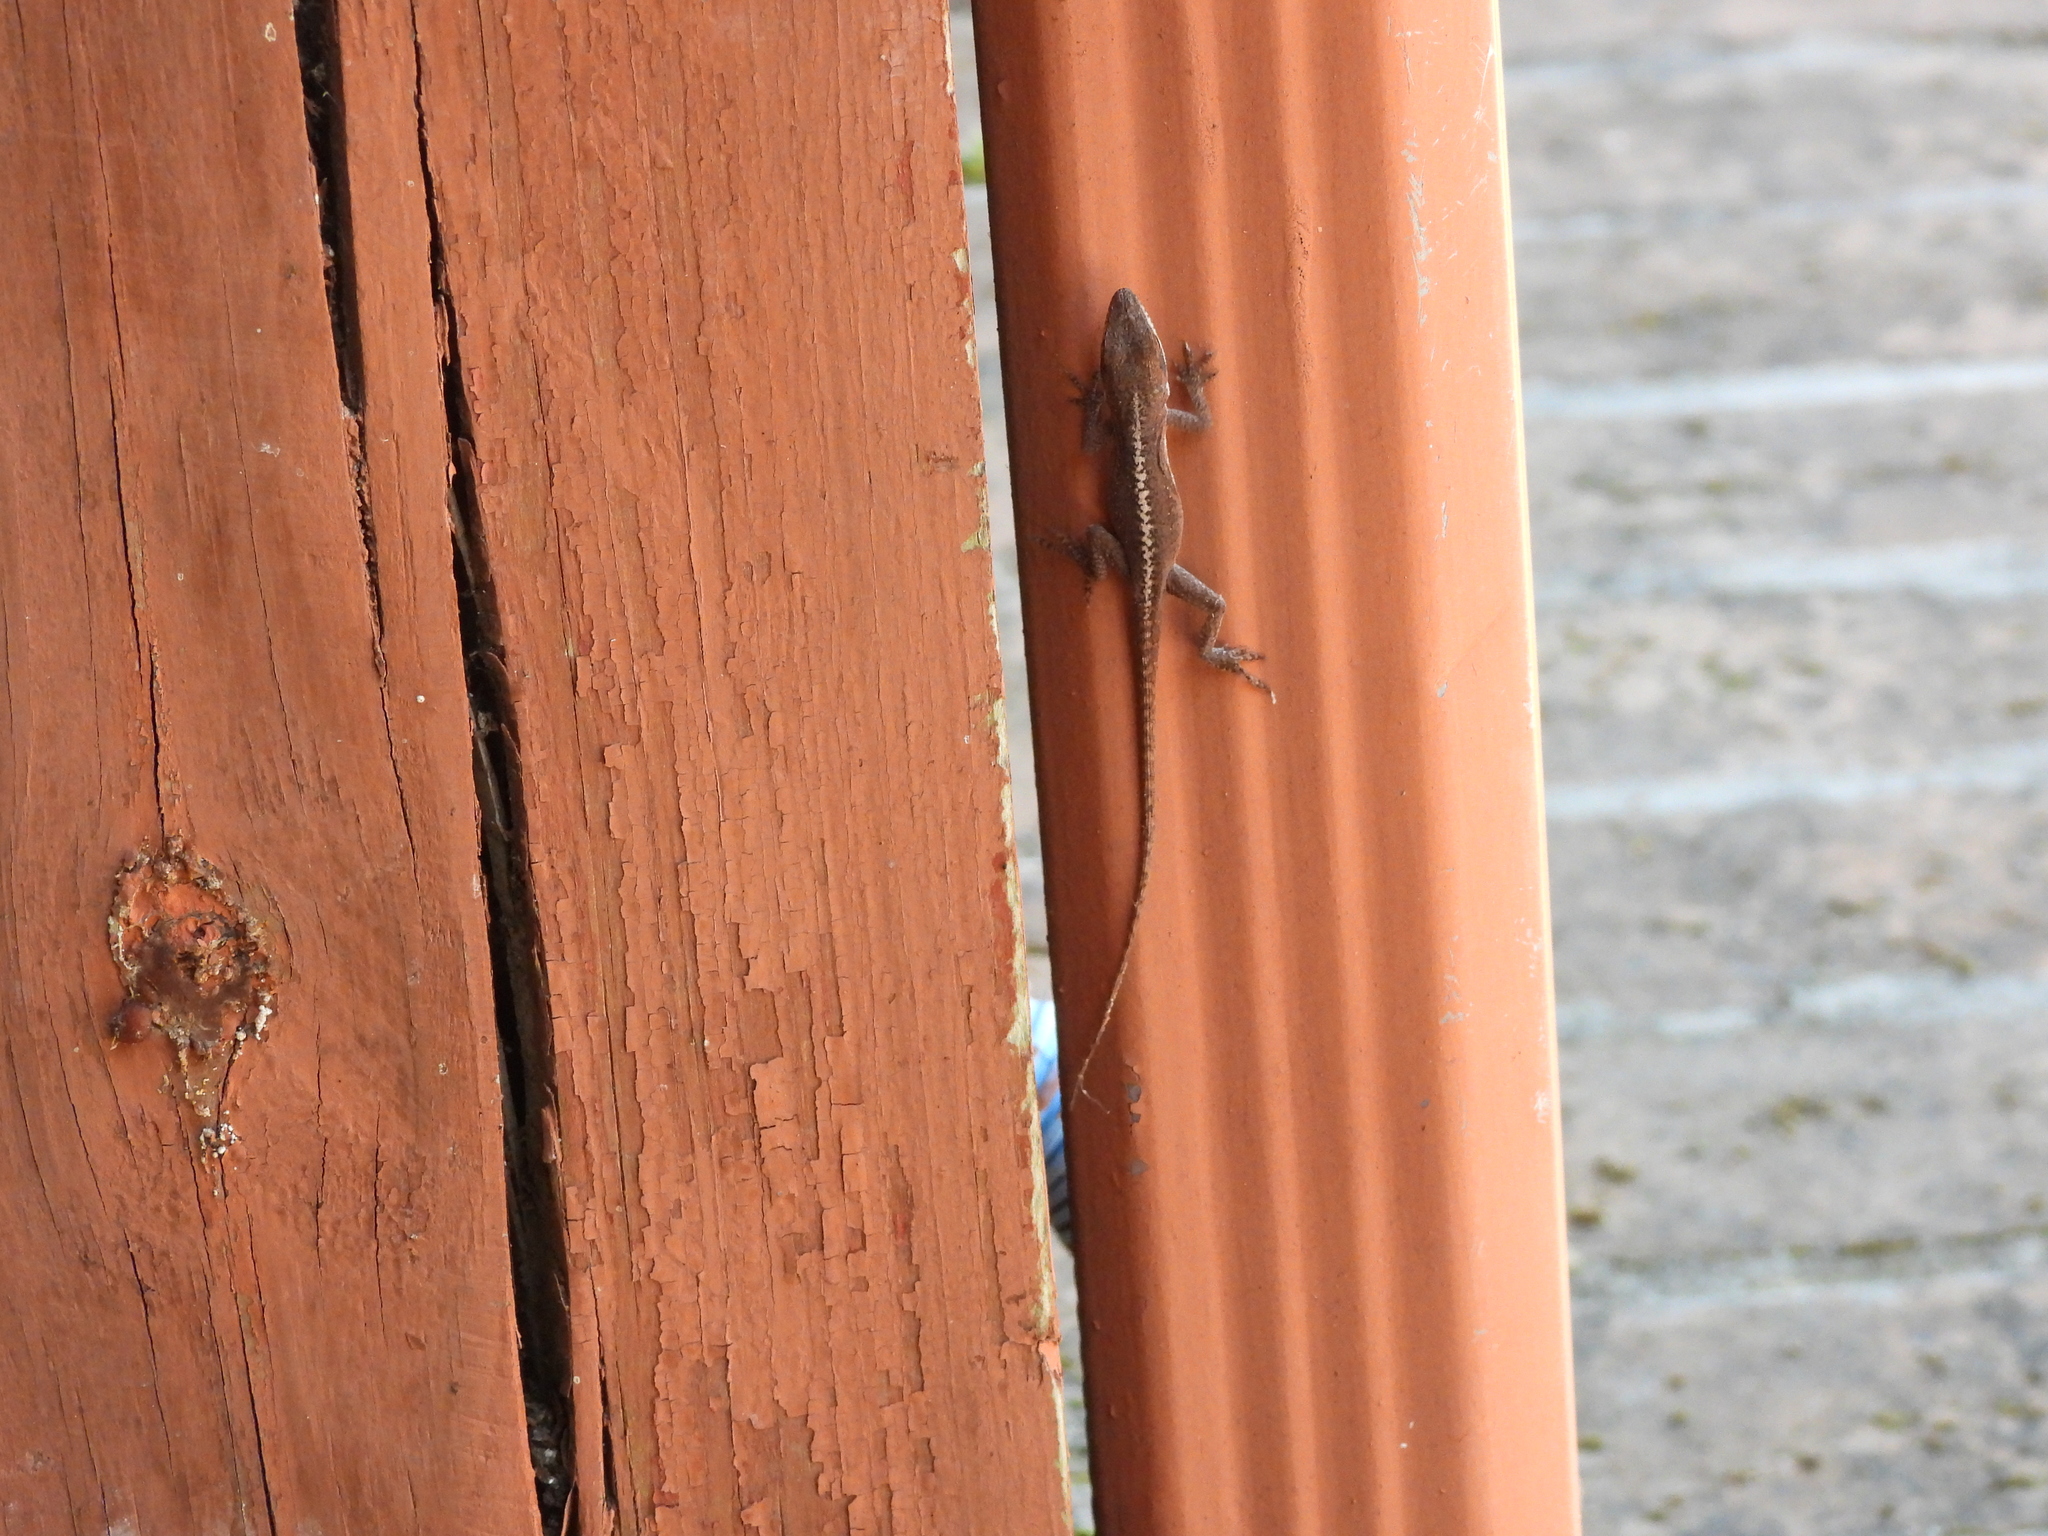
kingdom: Animalia
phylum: Chordata
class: Squamata
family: Dactyloidae
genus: Anolis
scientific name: Anolis carolinensis
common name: Green anole
